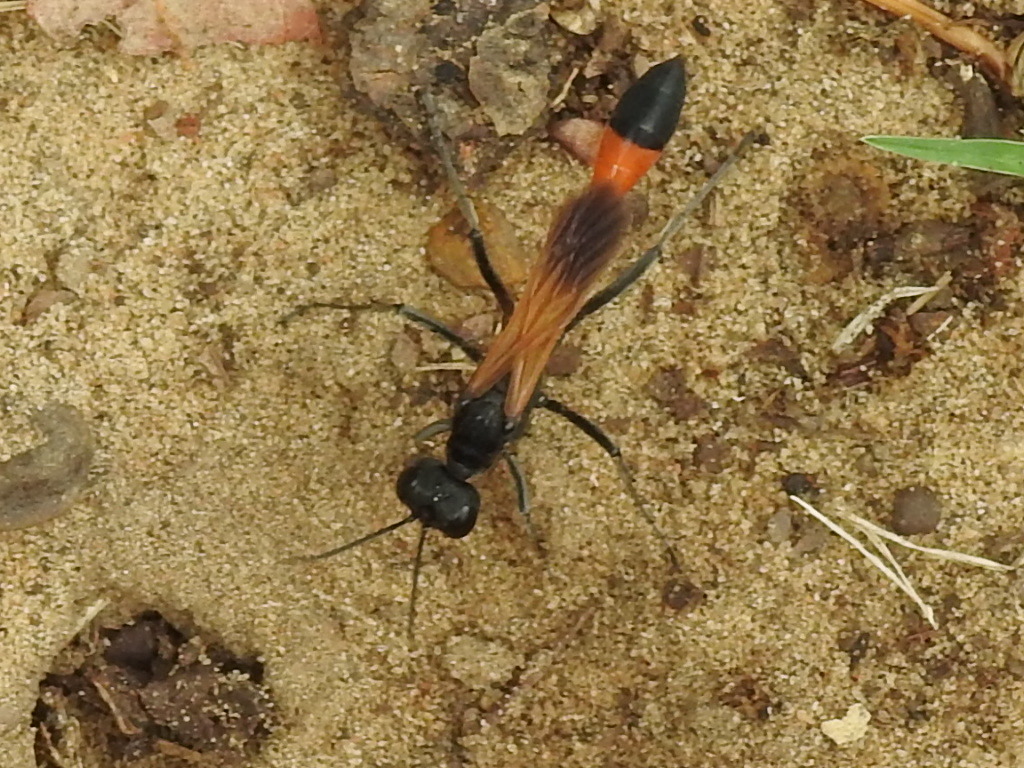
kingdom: Animalia
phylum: Arthropoda
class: Insecta
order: Hymenoptera
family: Sphecidae
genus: Ammophila
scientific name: Ammophila
